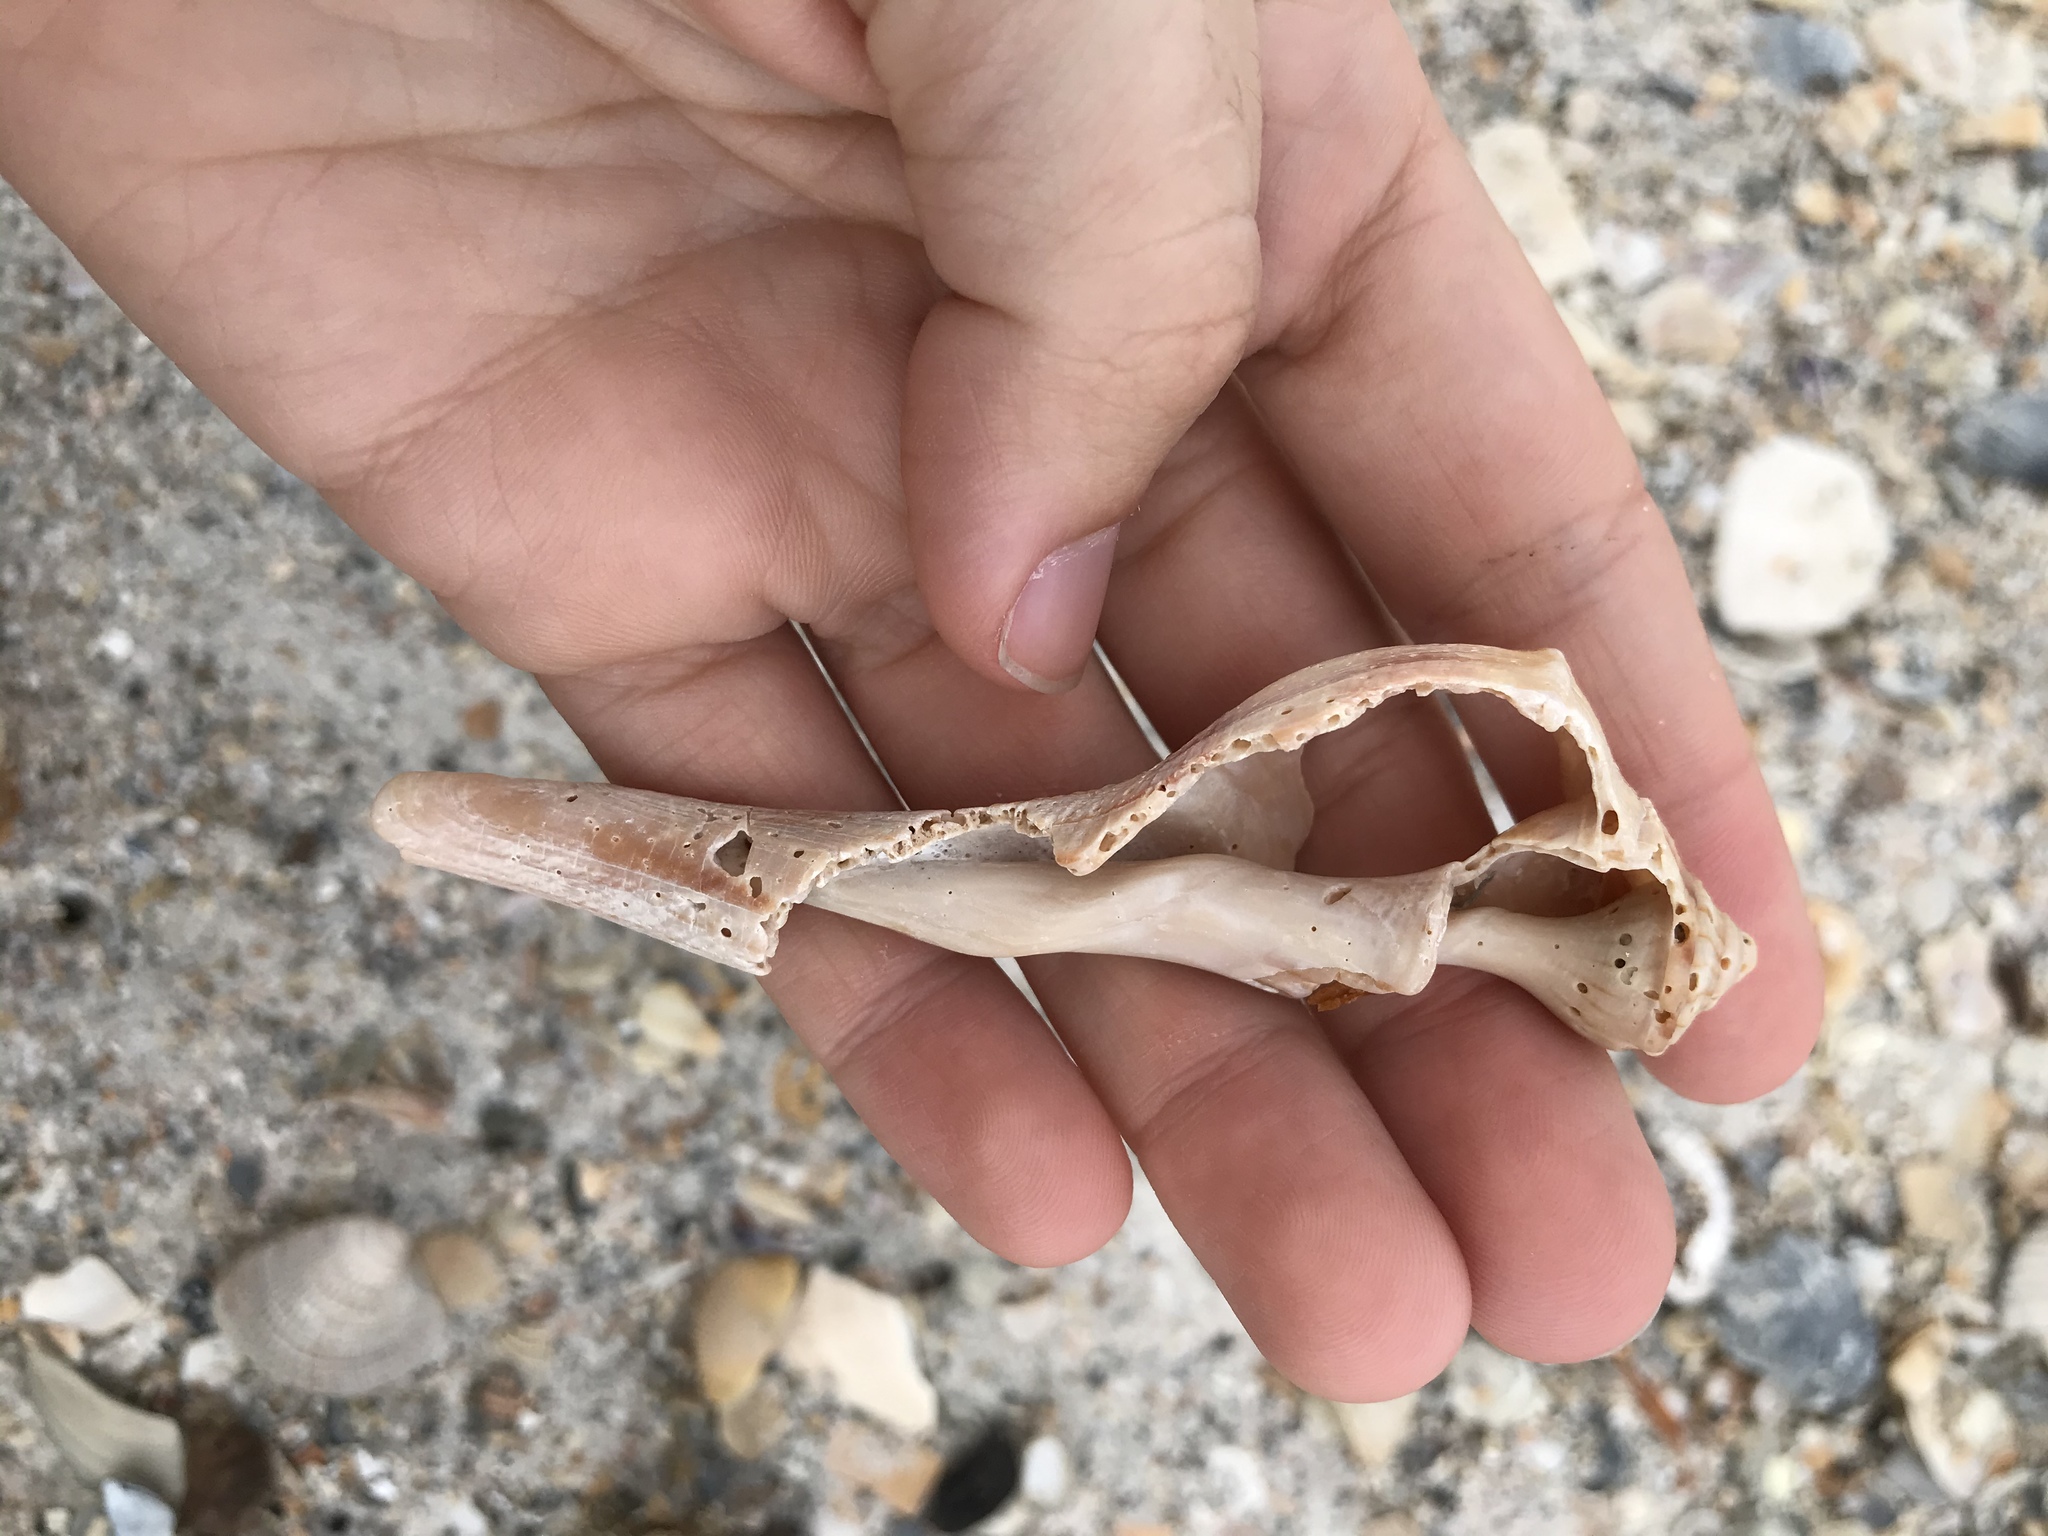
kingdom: Animalia
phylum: Mollusca
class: Gastropoda
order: Neogastropoda
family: Busyconidae
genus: Sinistrofulgur
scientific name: Sinistrofulgur sinistrum
